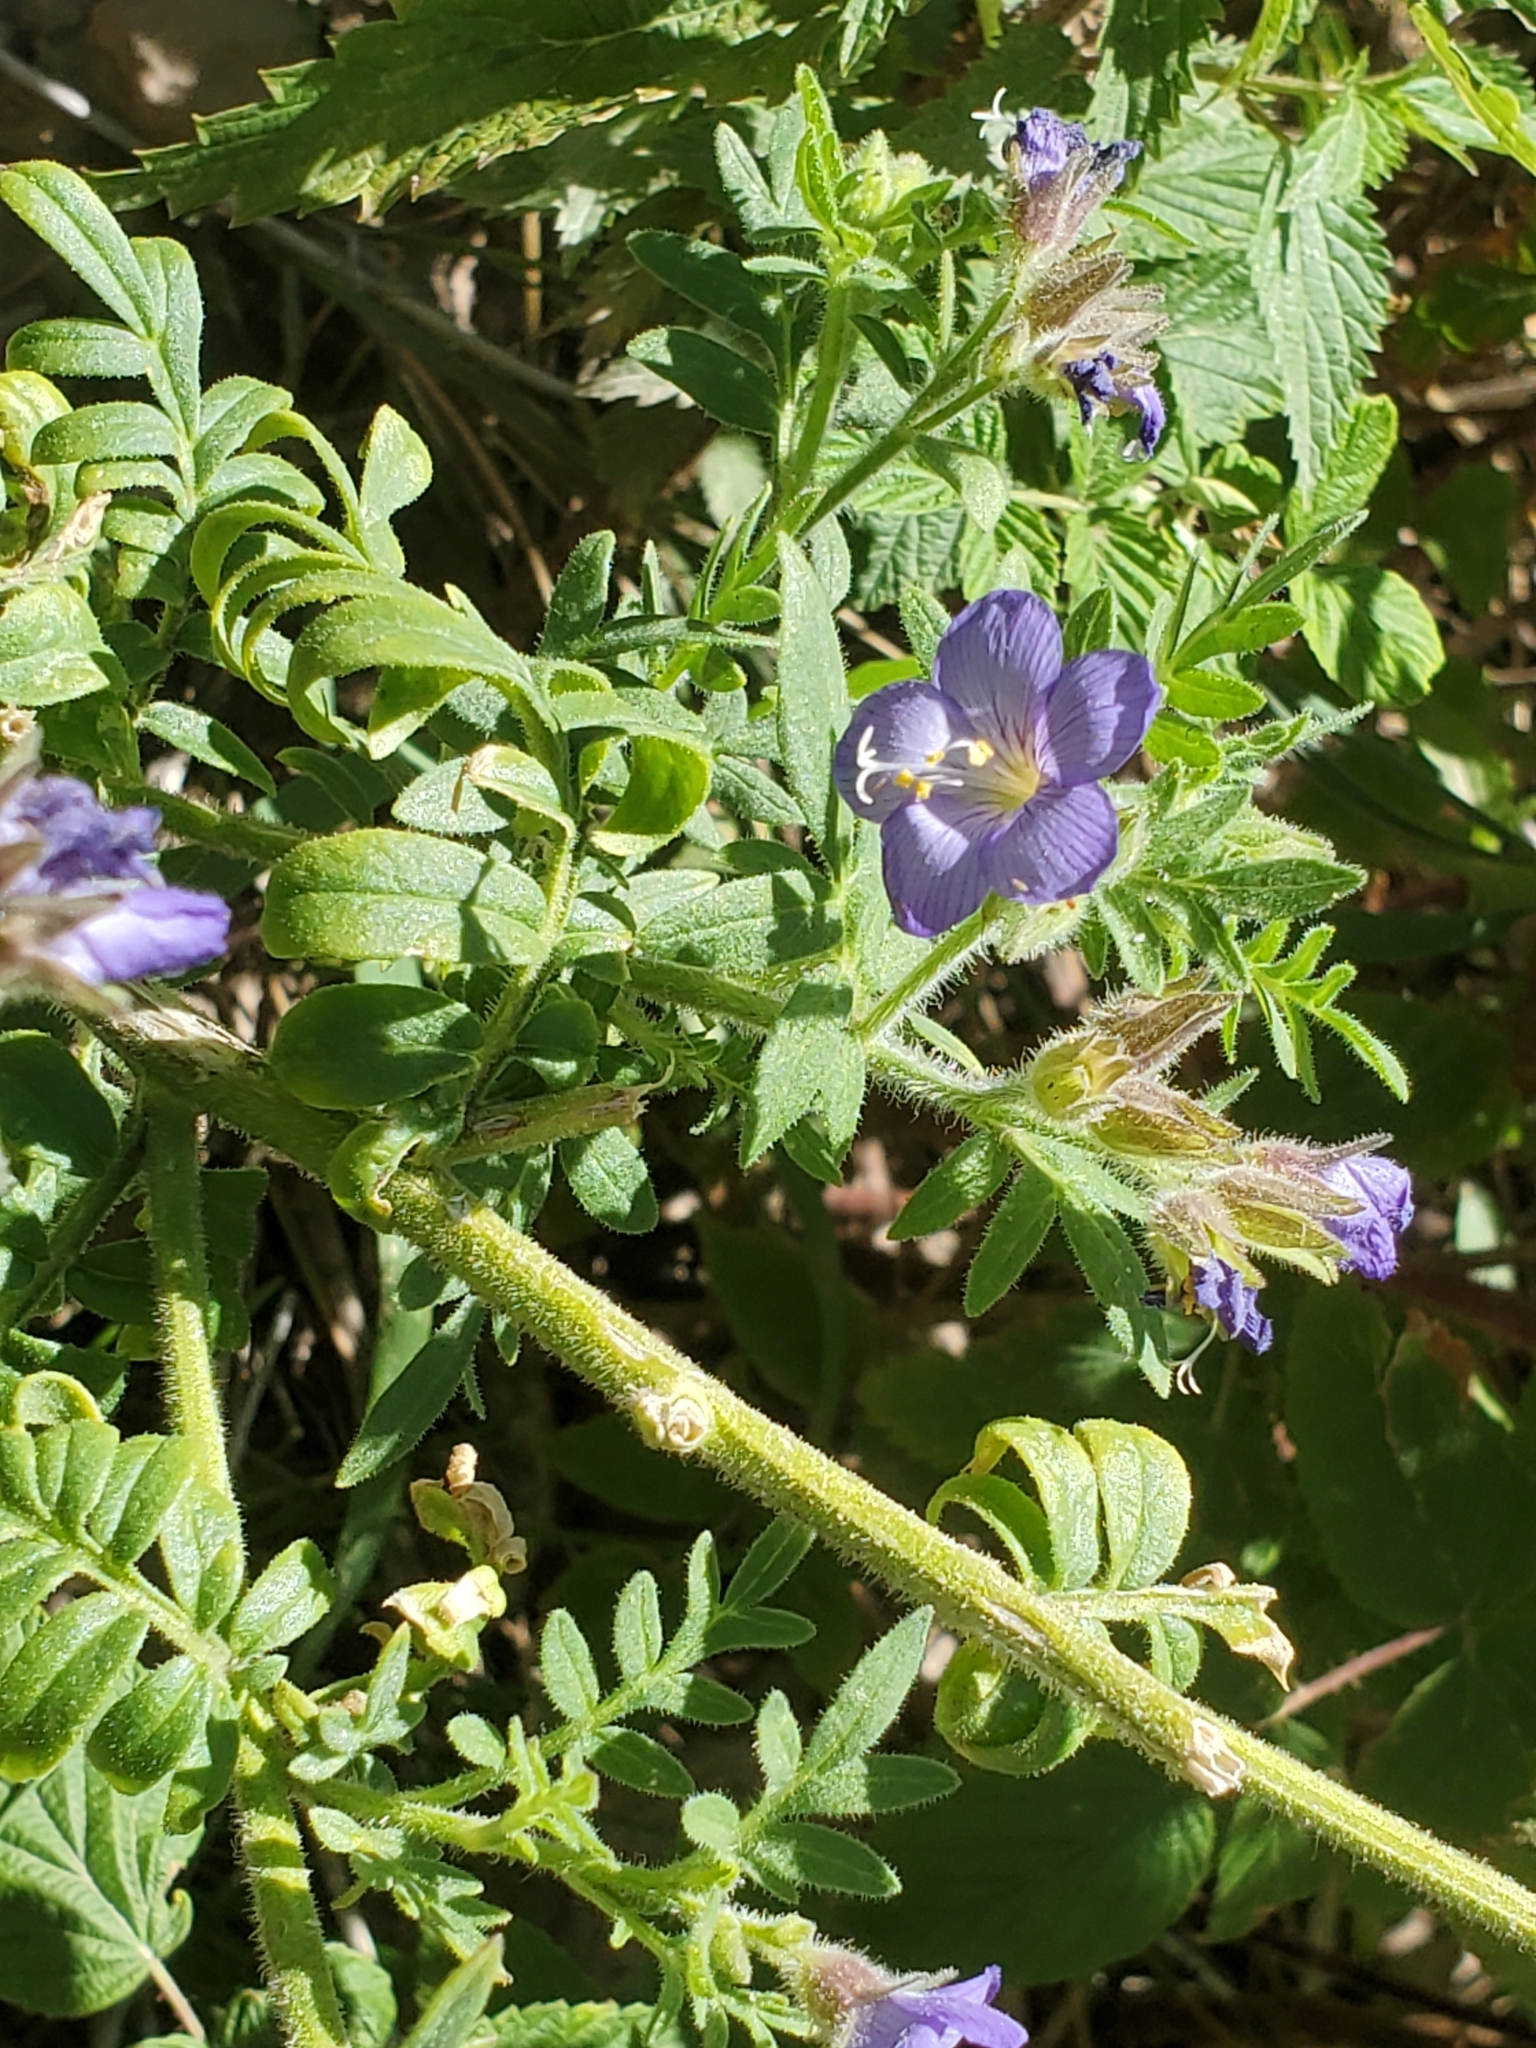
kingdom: Plantae
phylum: Tracheophyta
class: Magnoliopsida
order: Ericales
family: Polemoniaceae
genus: Polemonium
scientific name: Polemonium foliosissimum
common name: Leafy jacob's-ladder
